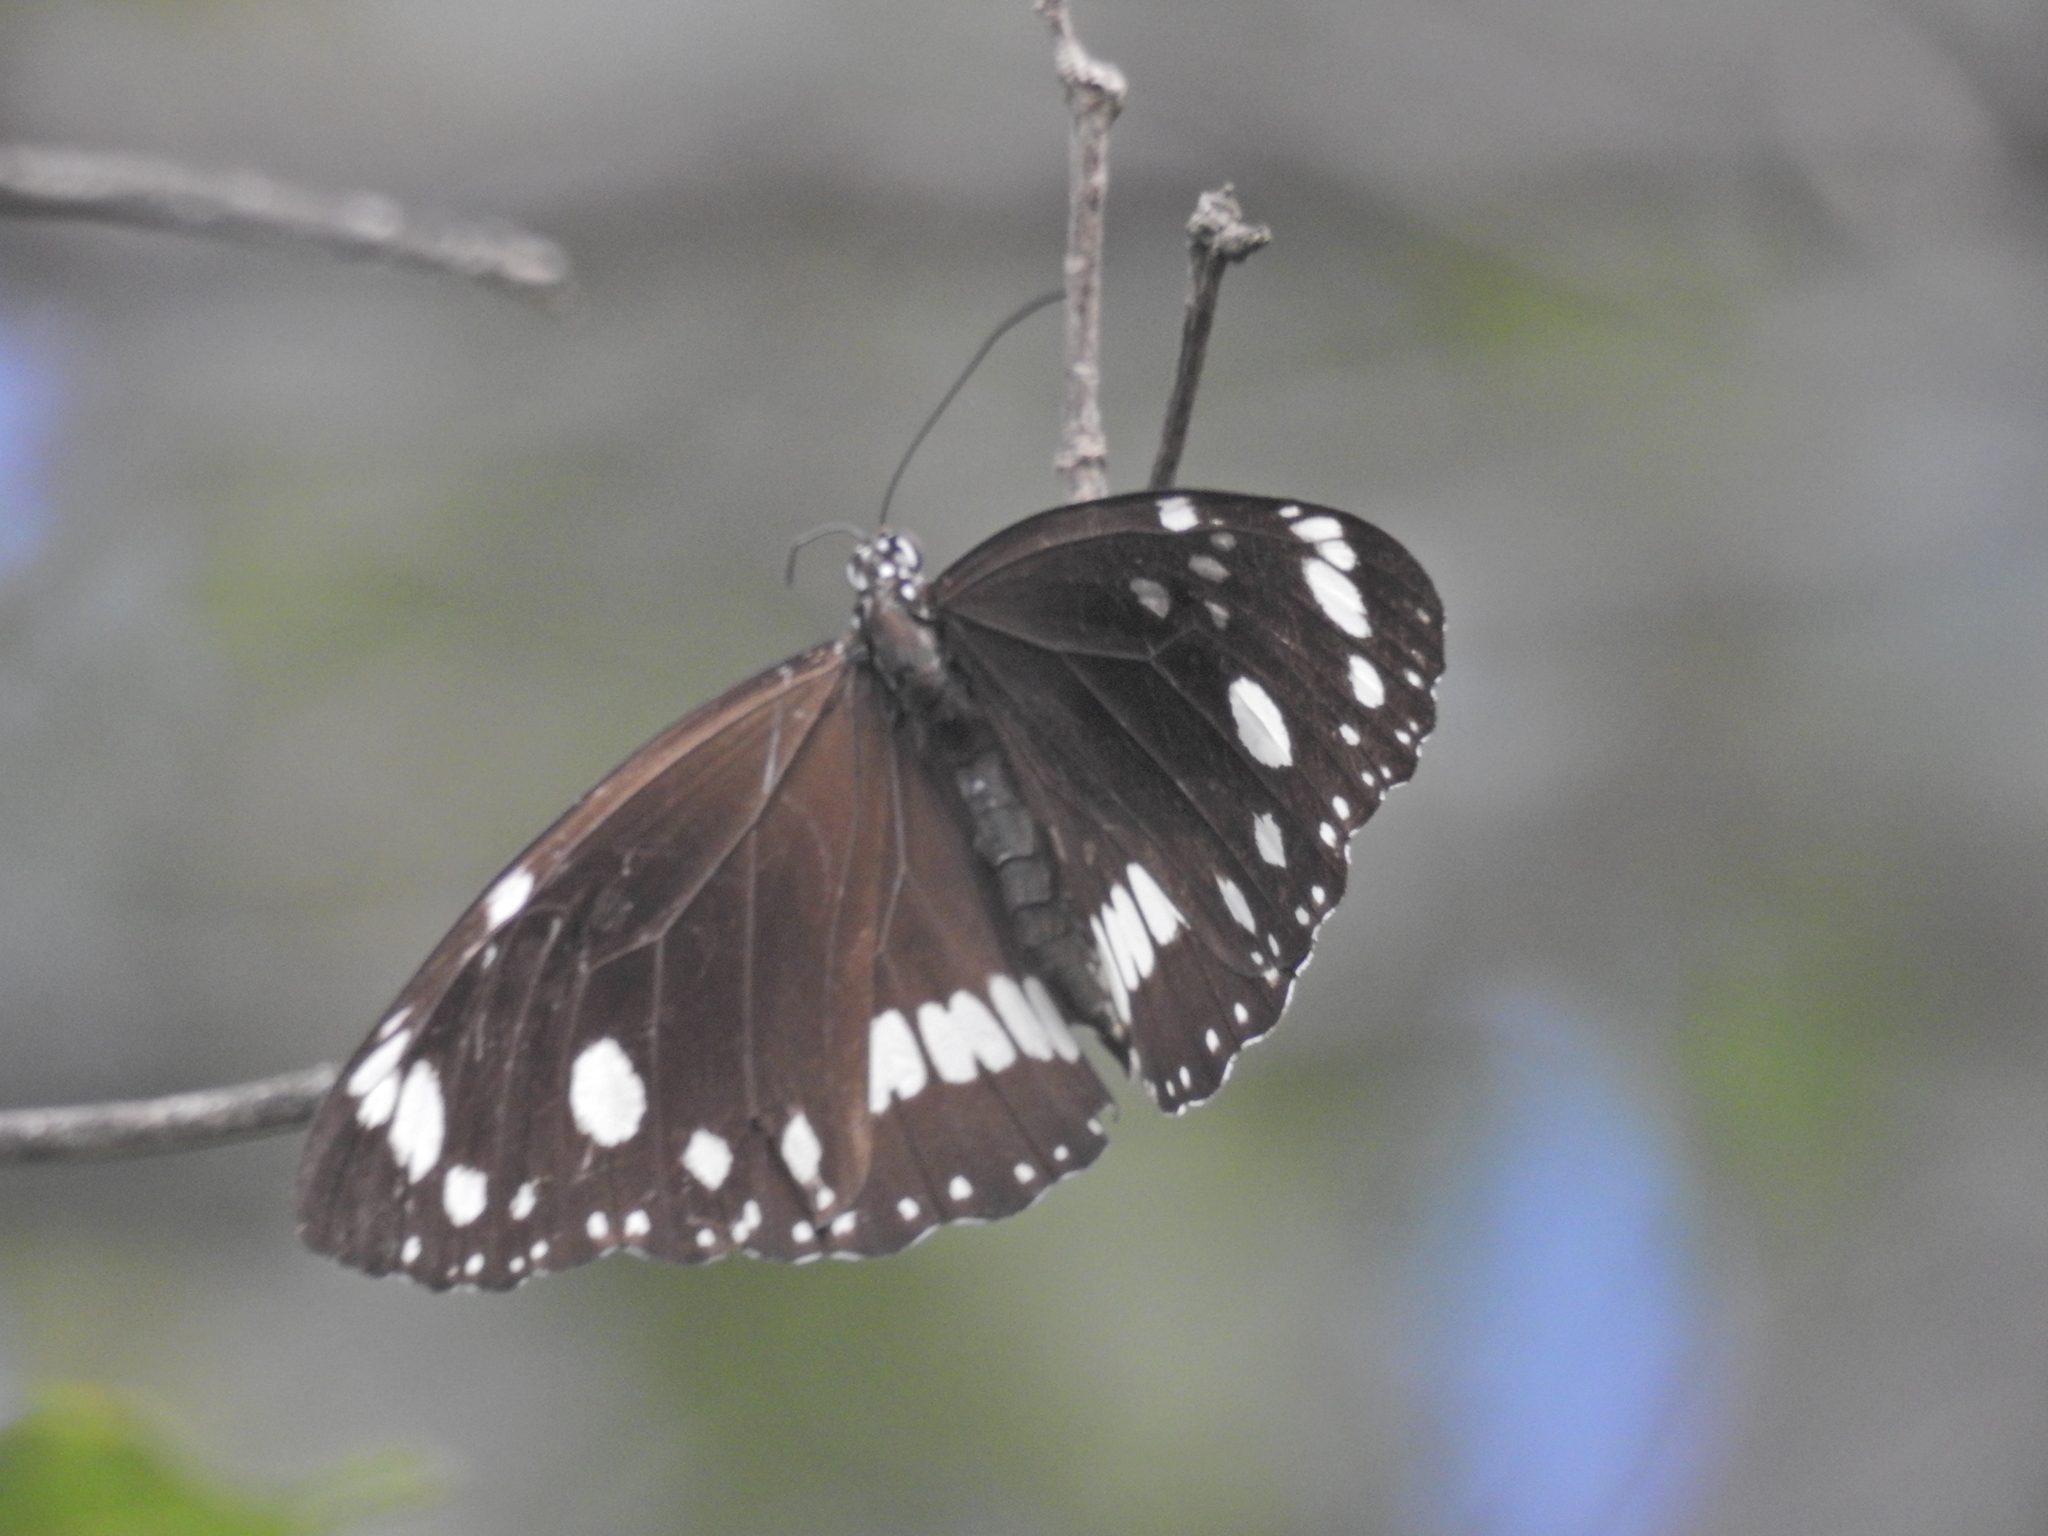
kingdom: Animalia
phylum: Arthropoda
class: Insecta
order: Lepidoptera
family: Nymphalidae
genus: Euploea
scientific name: Euploea core
